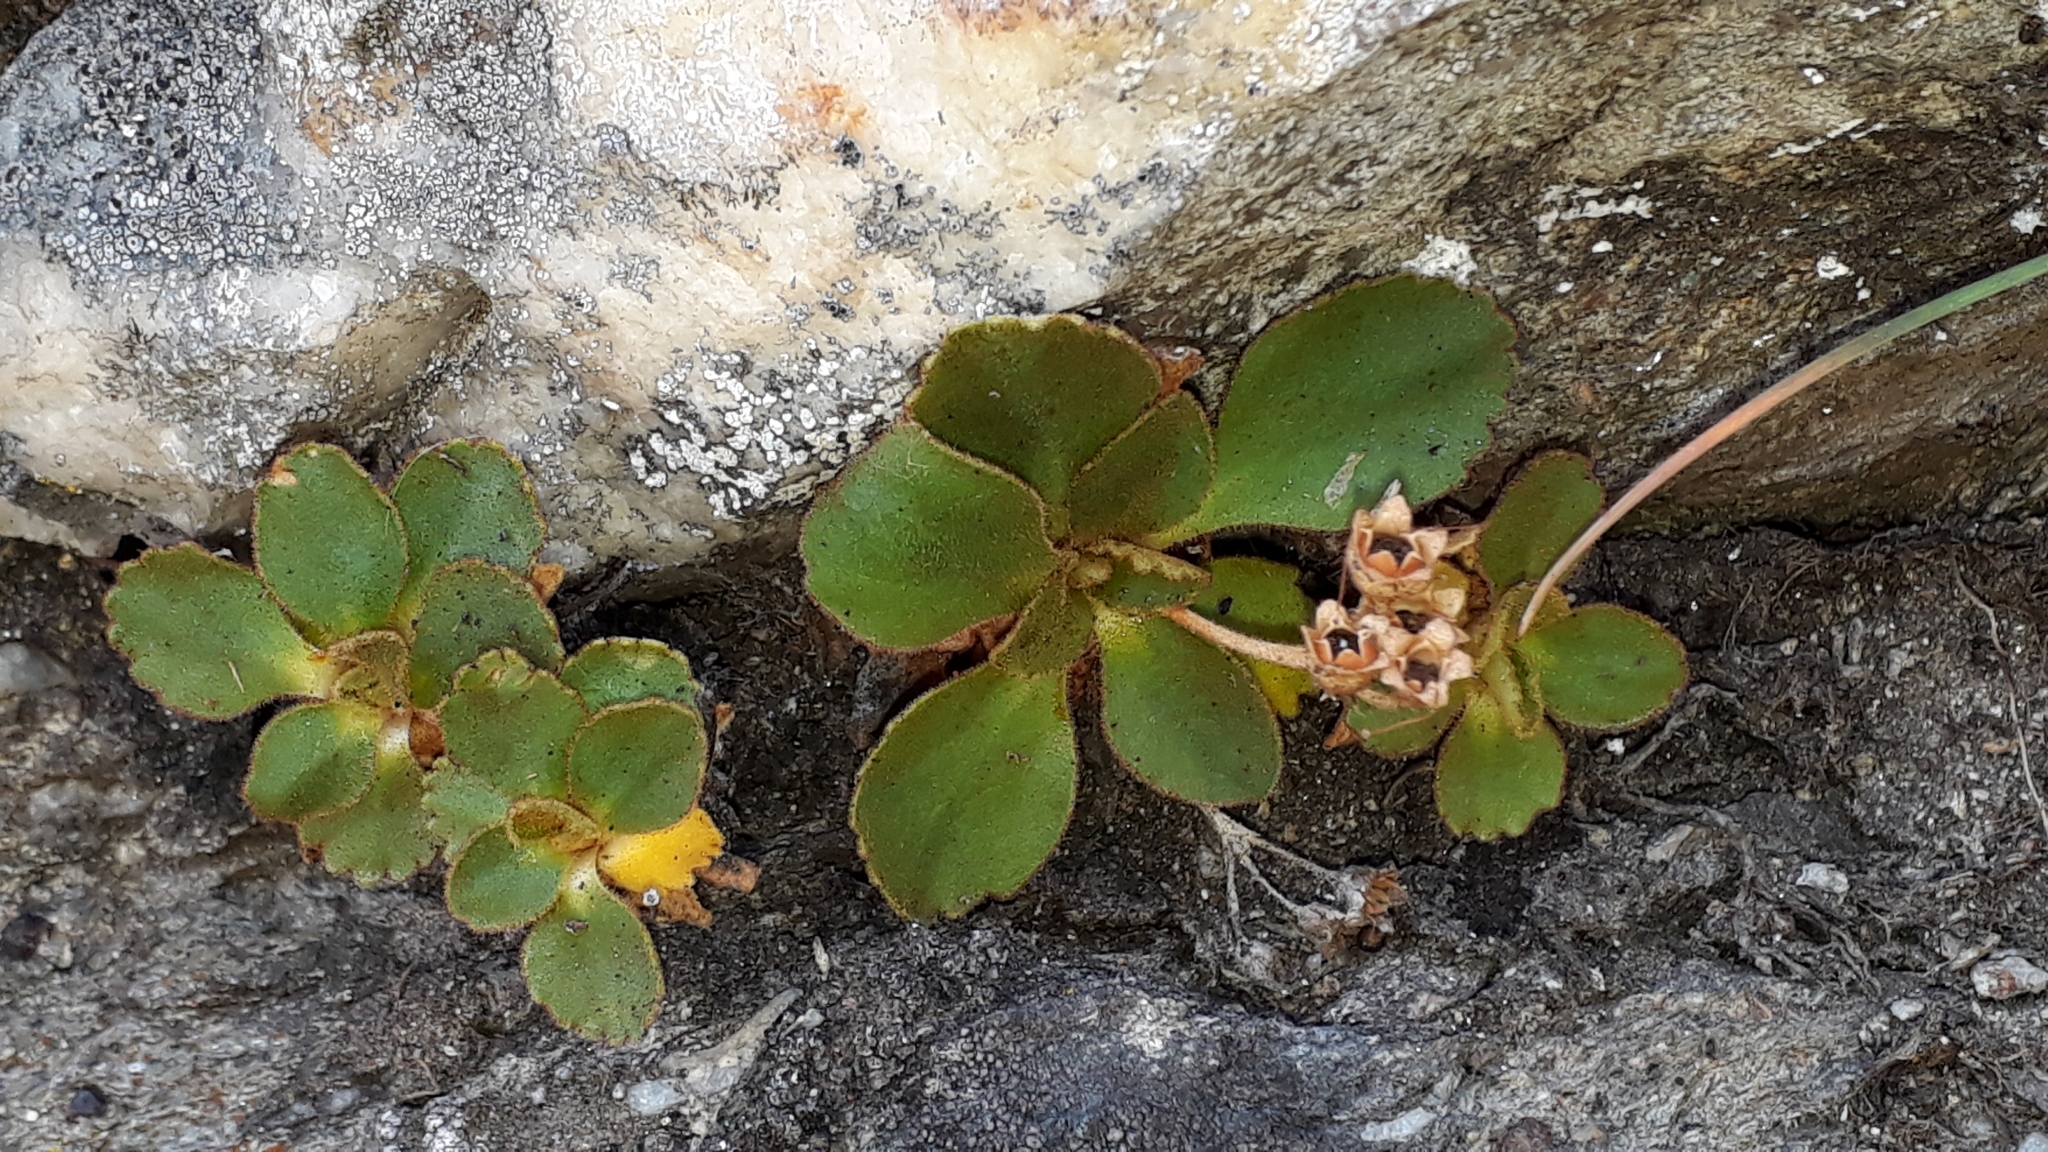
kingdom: Plantae
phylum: Tracheophyta
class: Magnoliopsida
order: Ericales
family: Primulaceae
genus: Primula
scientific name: Primula hirsuta
